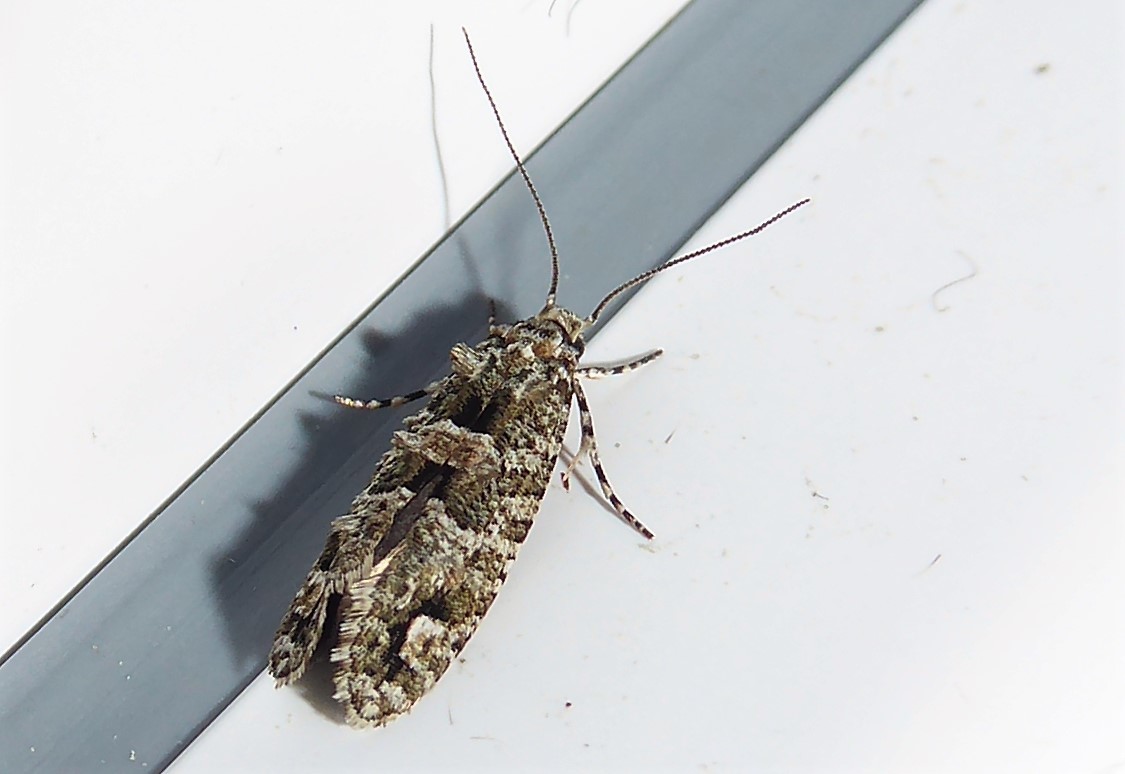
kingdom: Animalia
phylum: Arthropoda
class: Insecta
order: Lepidoptera
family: Tineidae
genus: Lysiphragma
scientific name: Lysiphragma howesii
